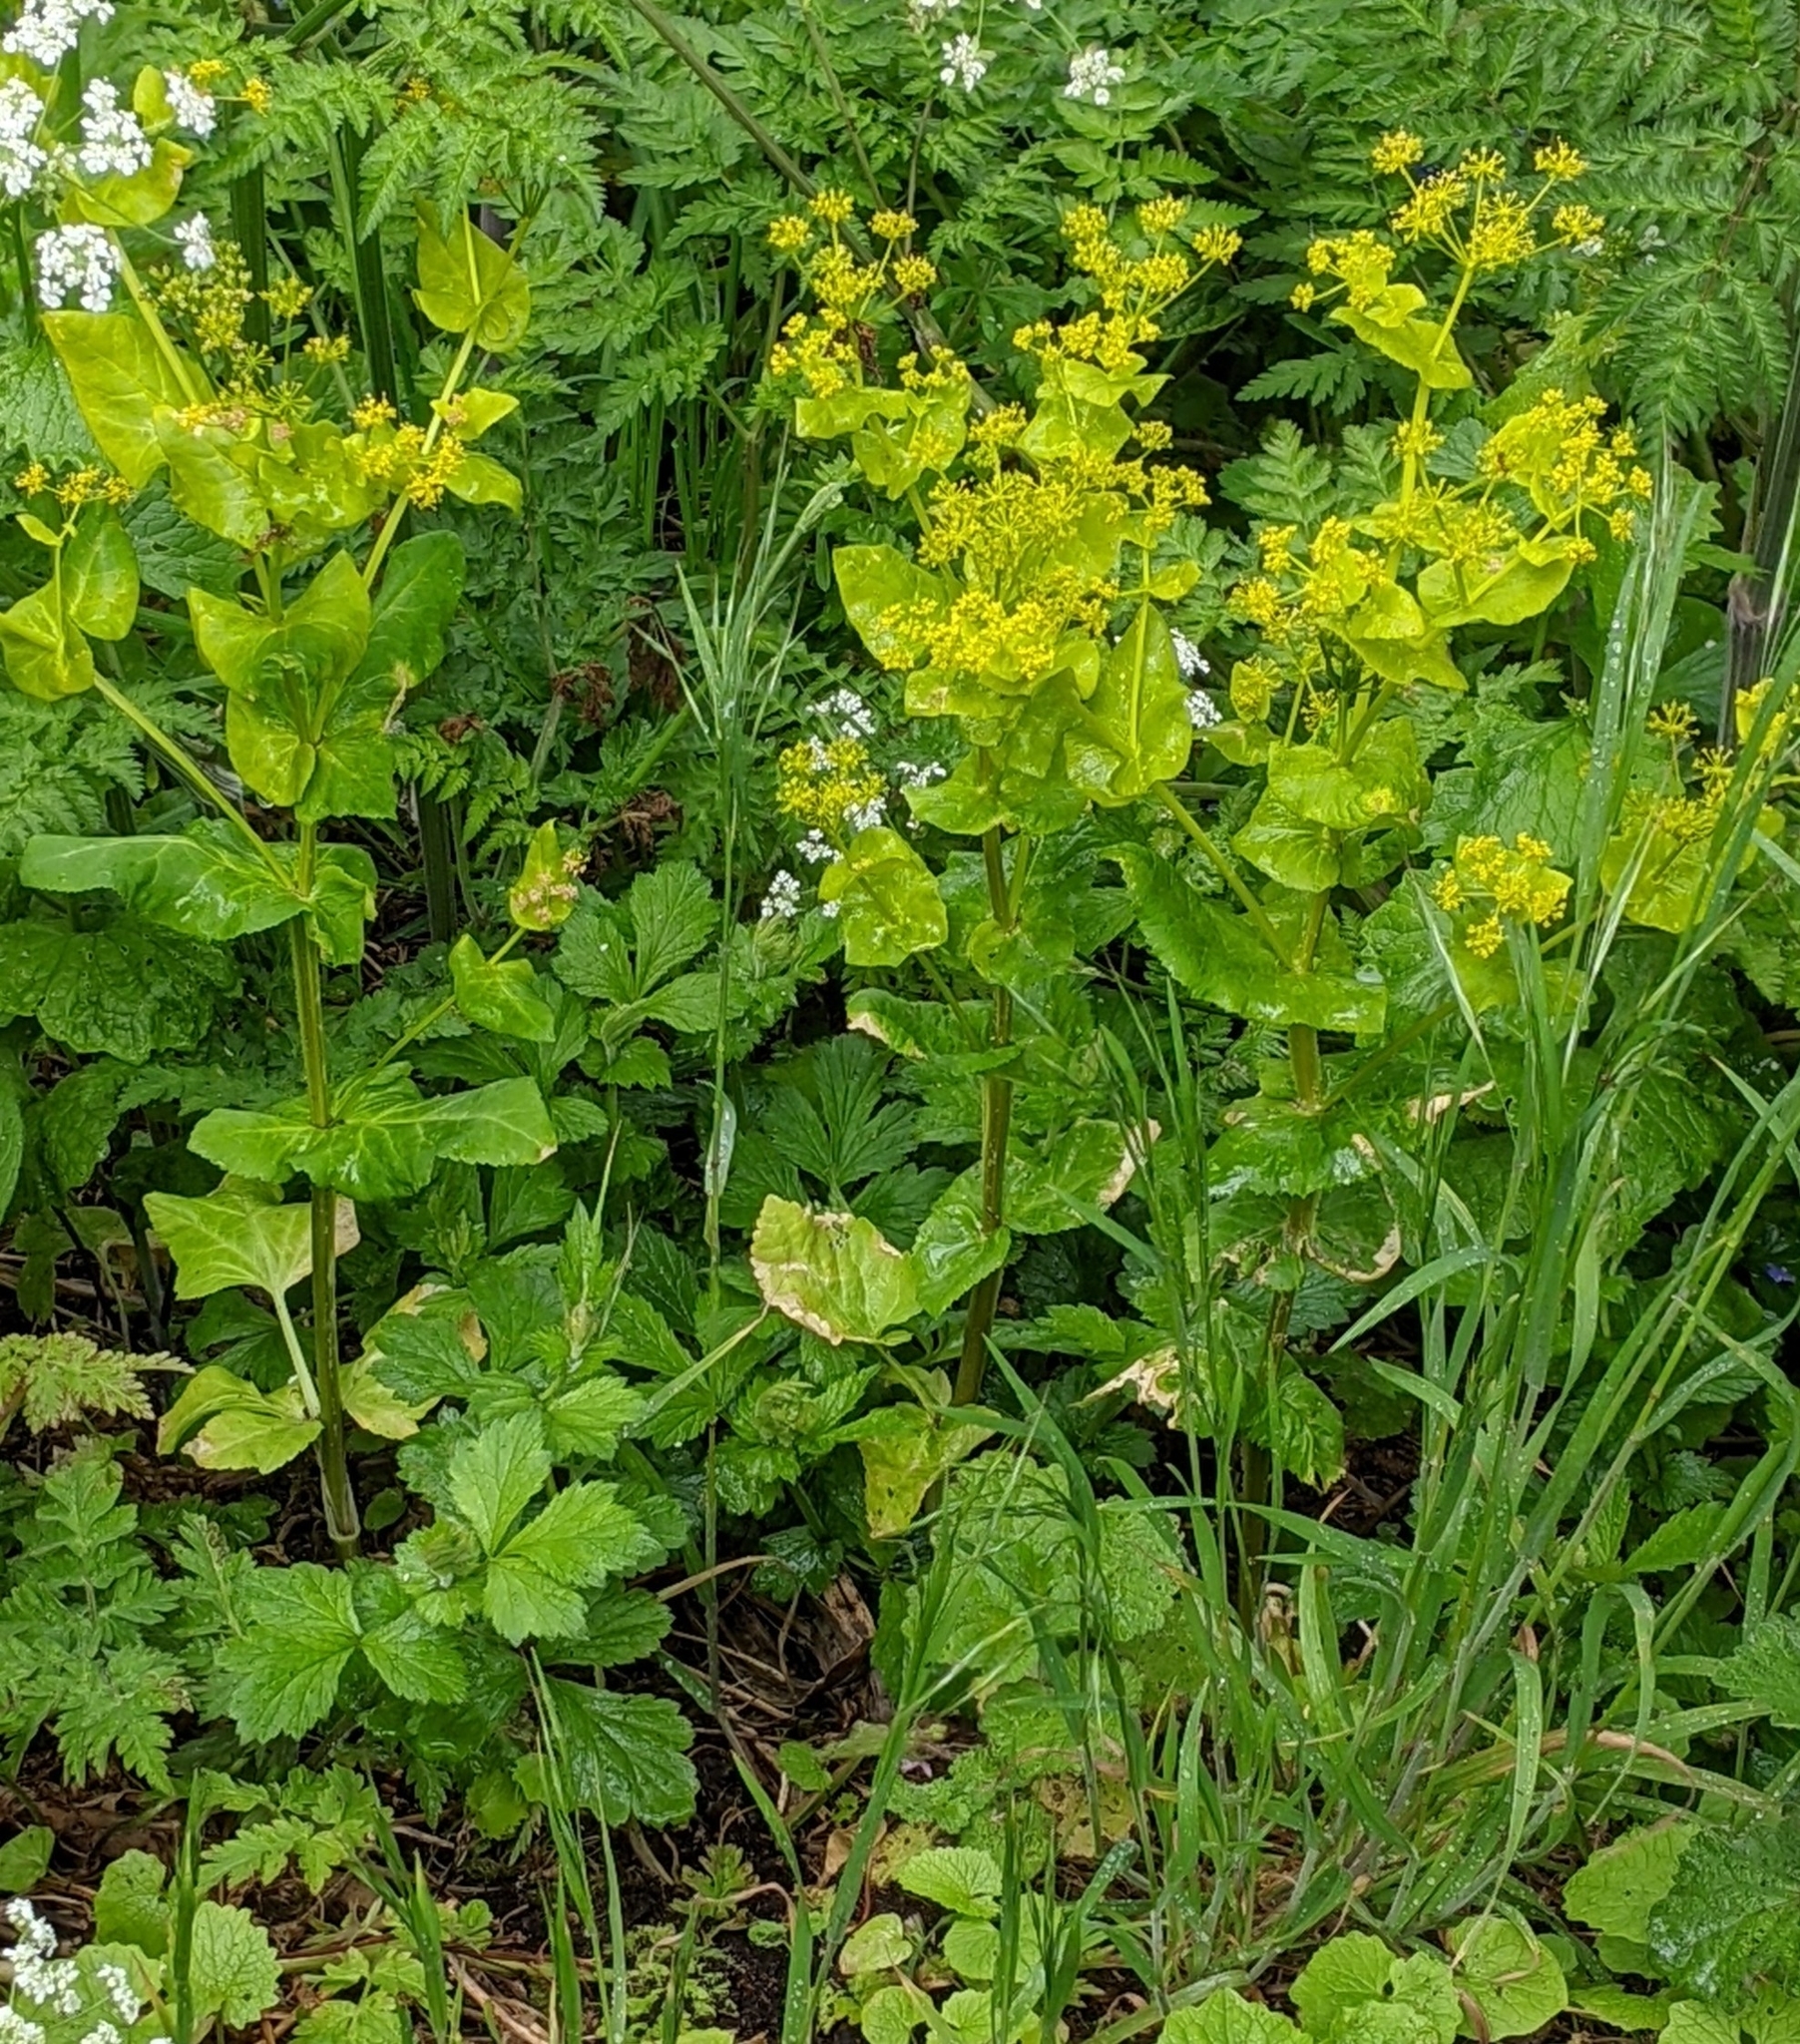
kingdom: Plantae
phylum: Tracheophyta
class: Magnoliopsida
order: Apiales
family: Apiaceae
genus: Smyrnium
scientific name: Smyrnium perfoliatum
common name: Perfoliate alexanders
